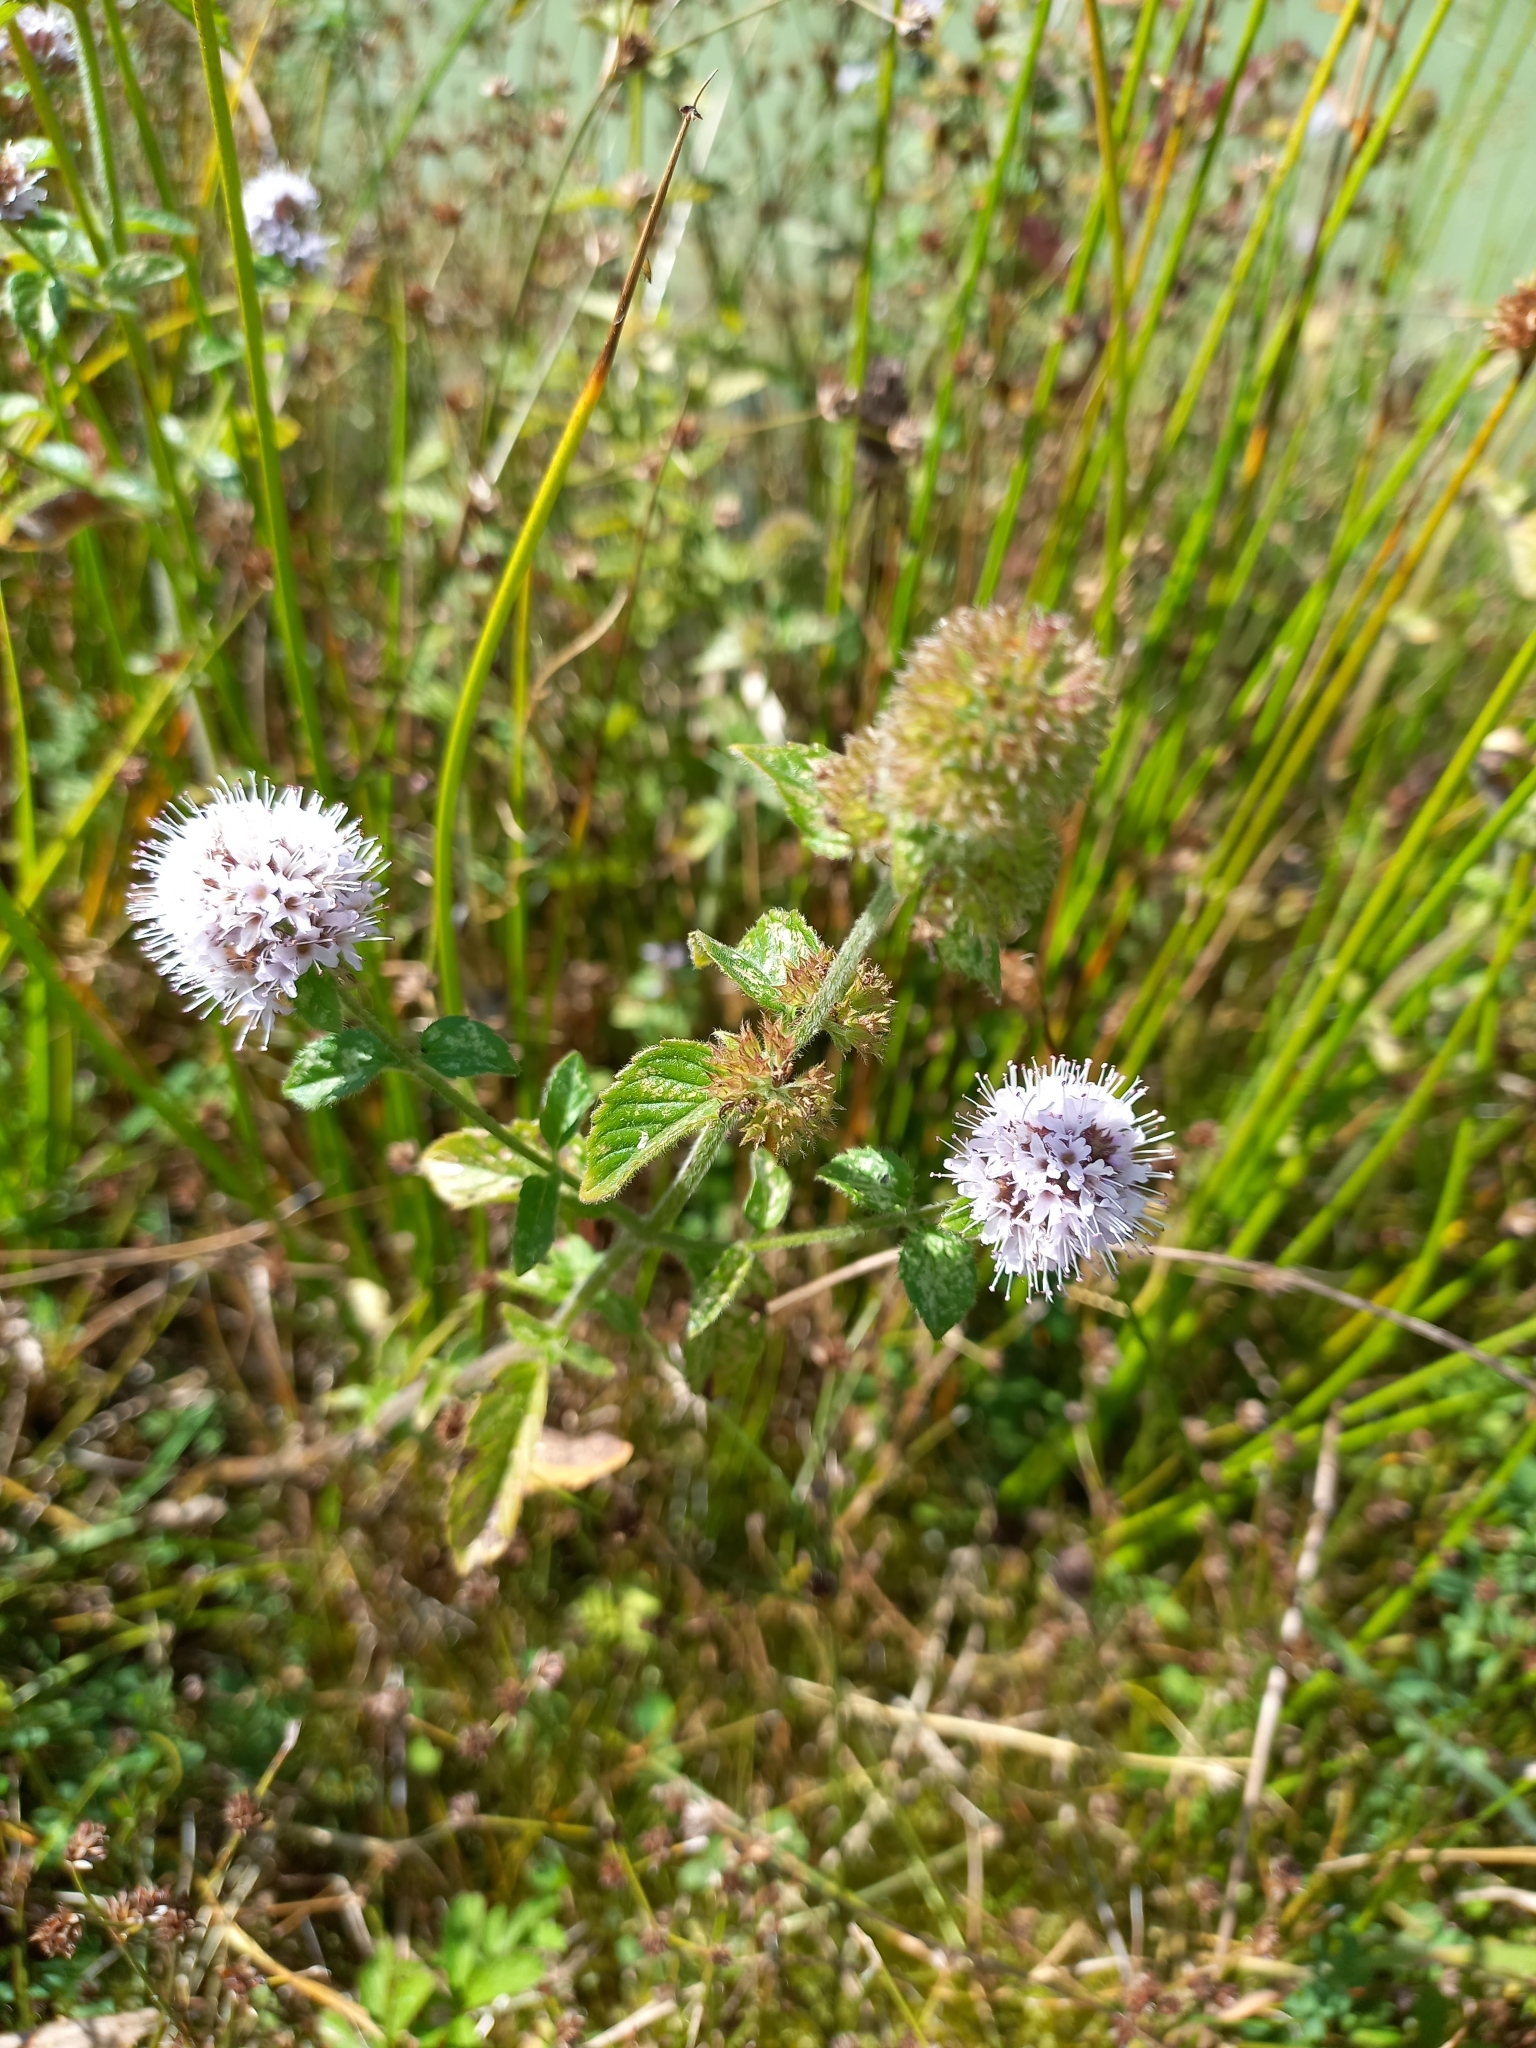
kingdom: Plantae
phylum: Tracheophyta
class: Magnoliopsida
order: Lamiales
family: Lamiaceae
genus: Mentha
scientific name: Mentha aquatica
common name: Water mint
